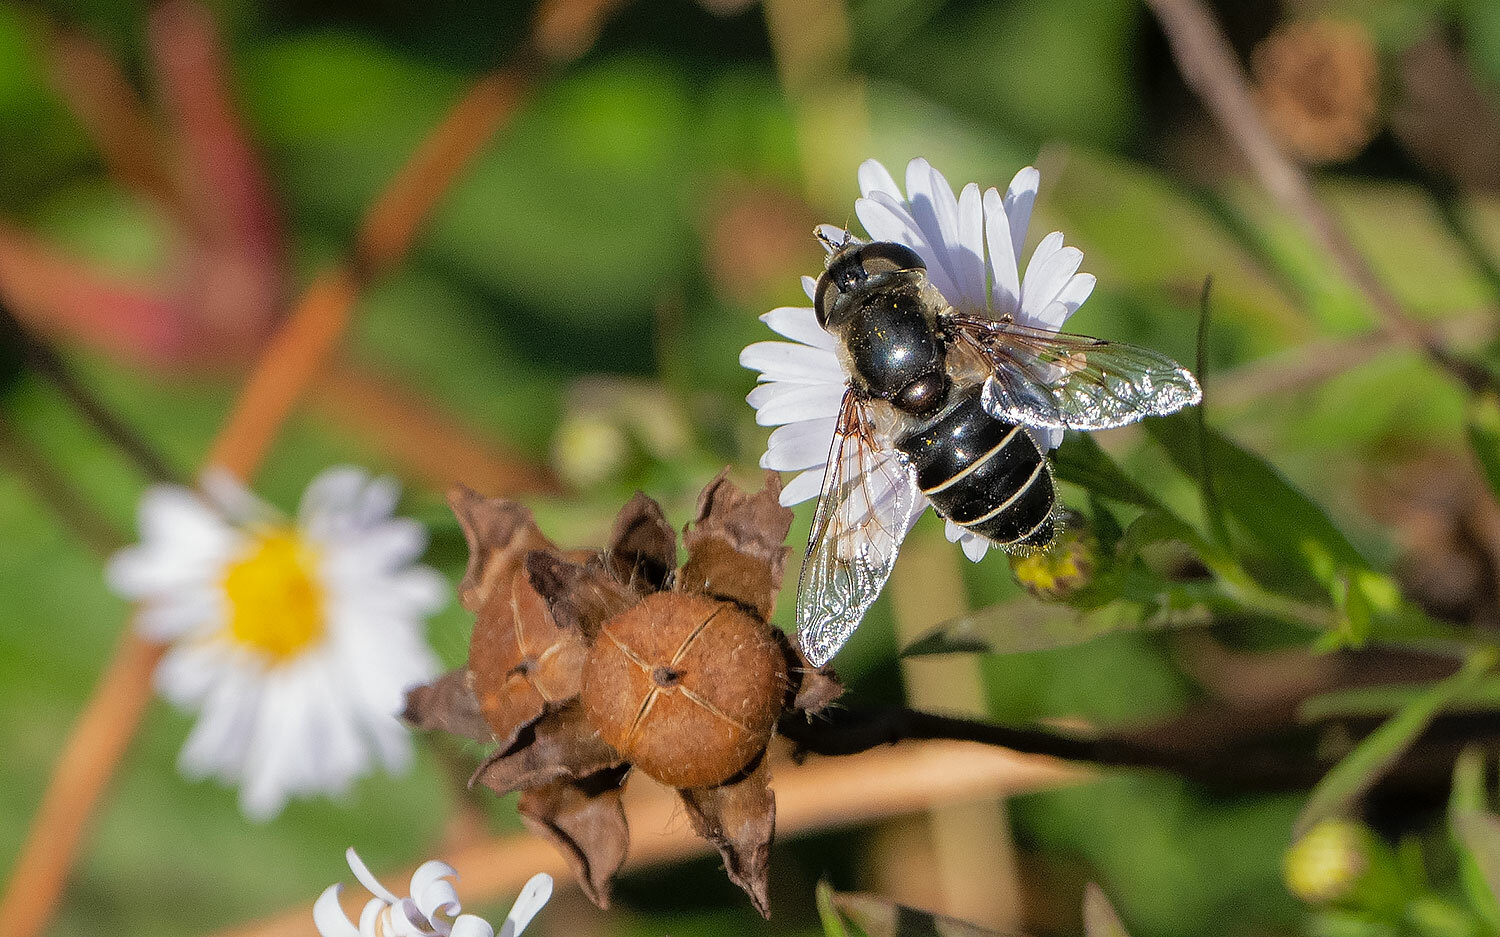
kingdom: Animalia
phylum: Arthropoda
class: Insecta
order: Diptera
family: Syrphidae
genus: Eristalis
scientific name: Eristalis dimidiata
